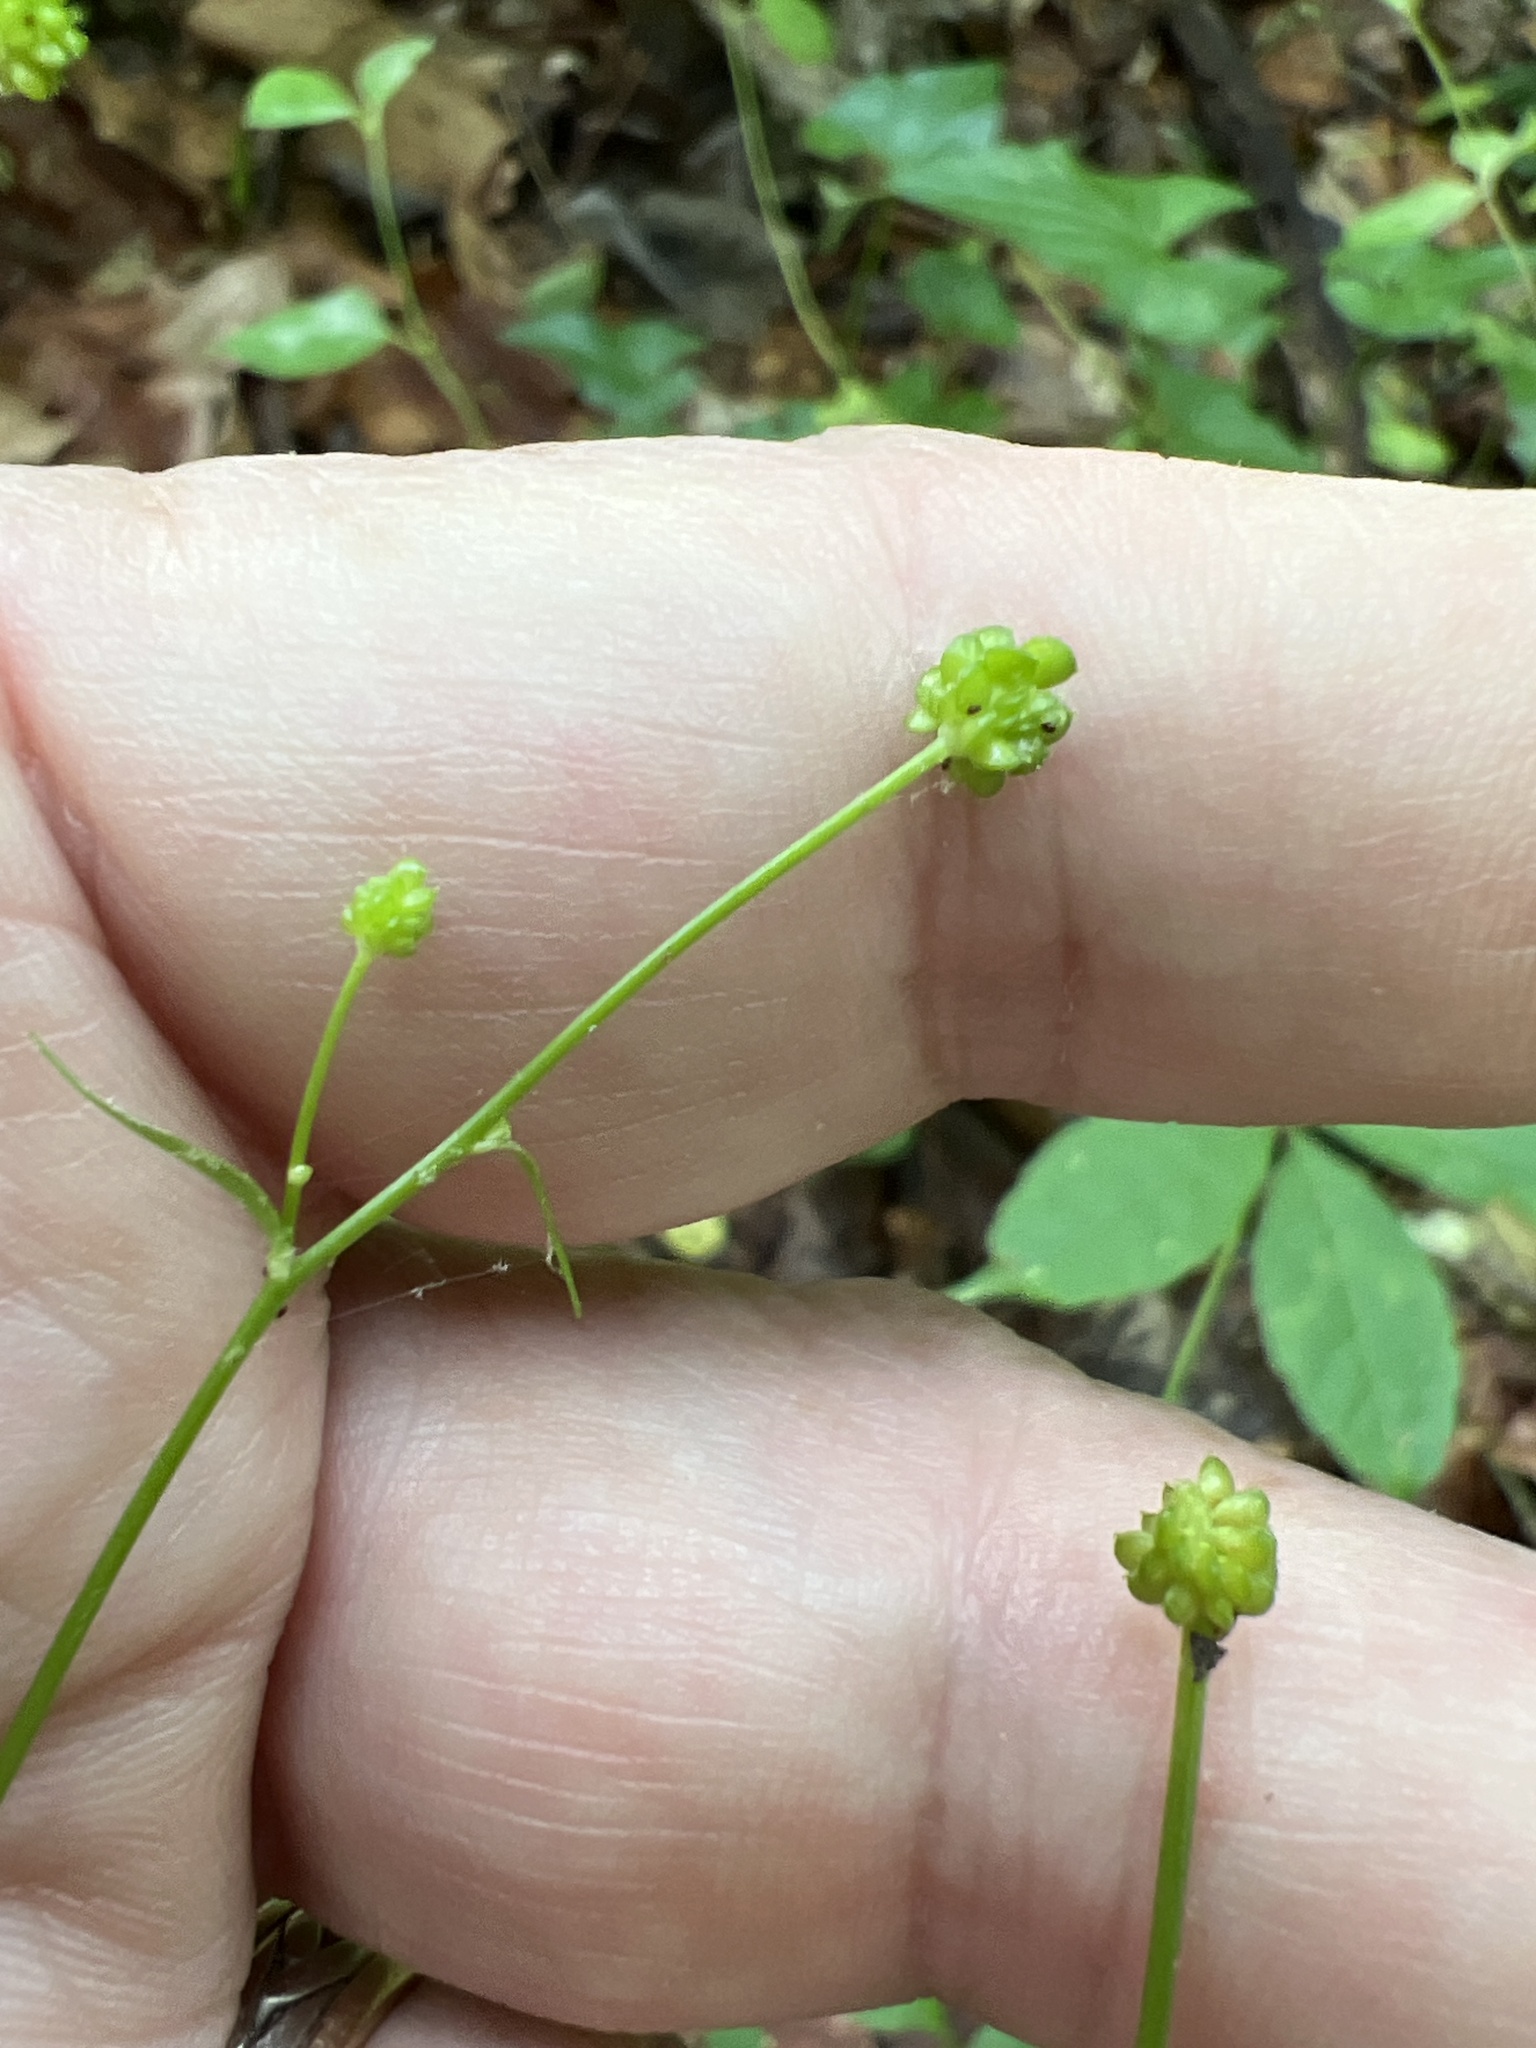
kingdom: Plantae
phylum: Tracheophyta
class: Magnoliopsida
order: Ranunculales
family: Ranunculaceae
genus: Ranunculus
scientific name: Ranunculus abortivus
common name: Early wood buttercup
